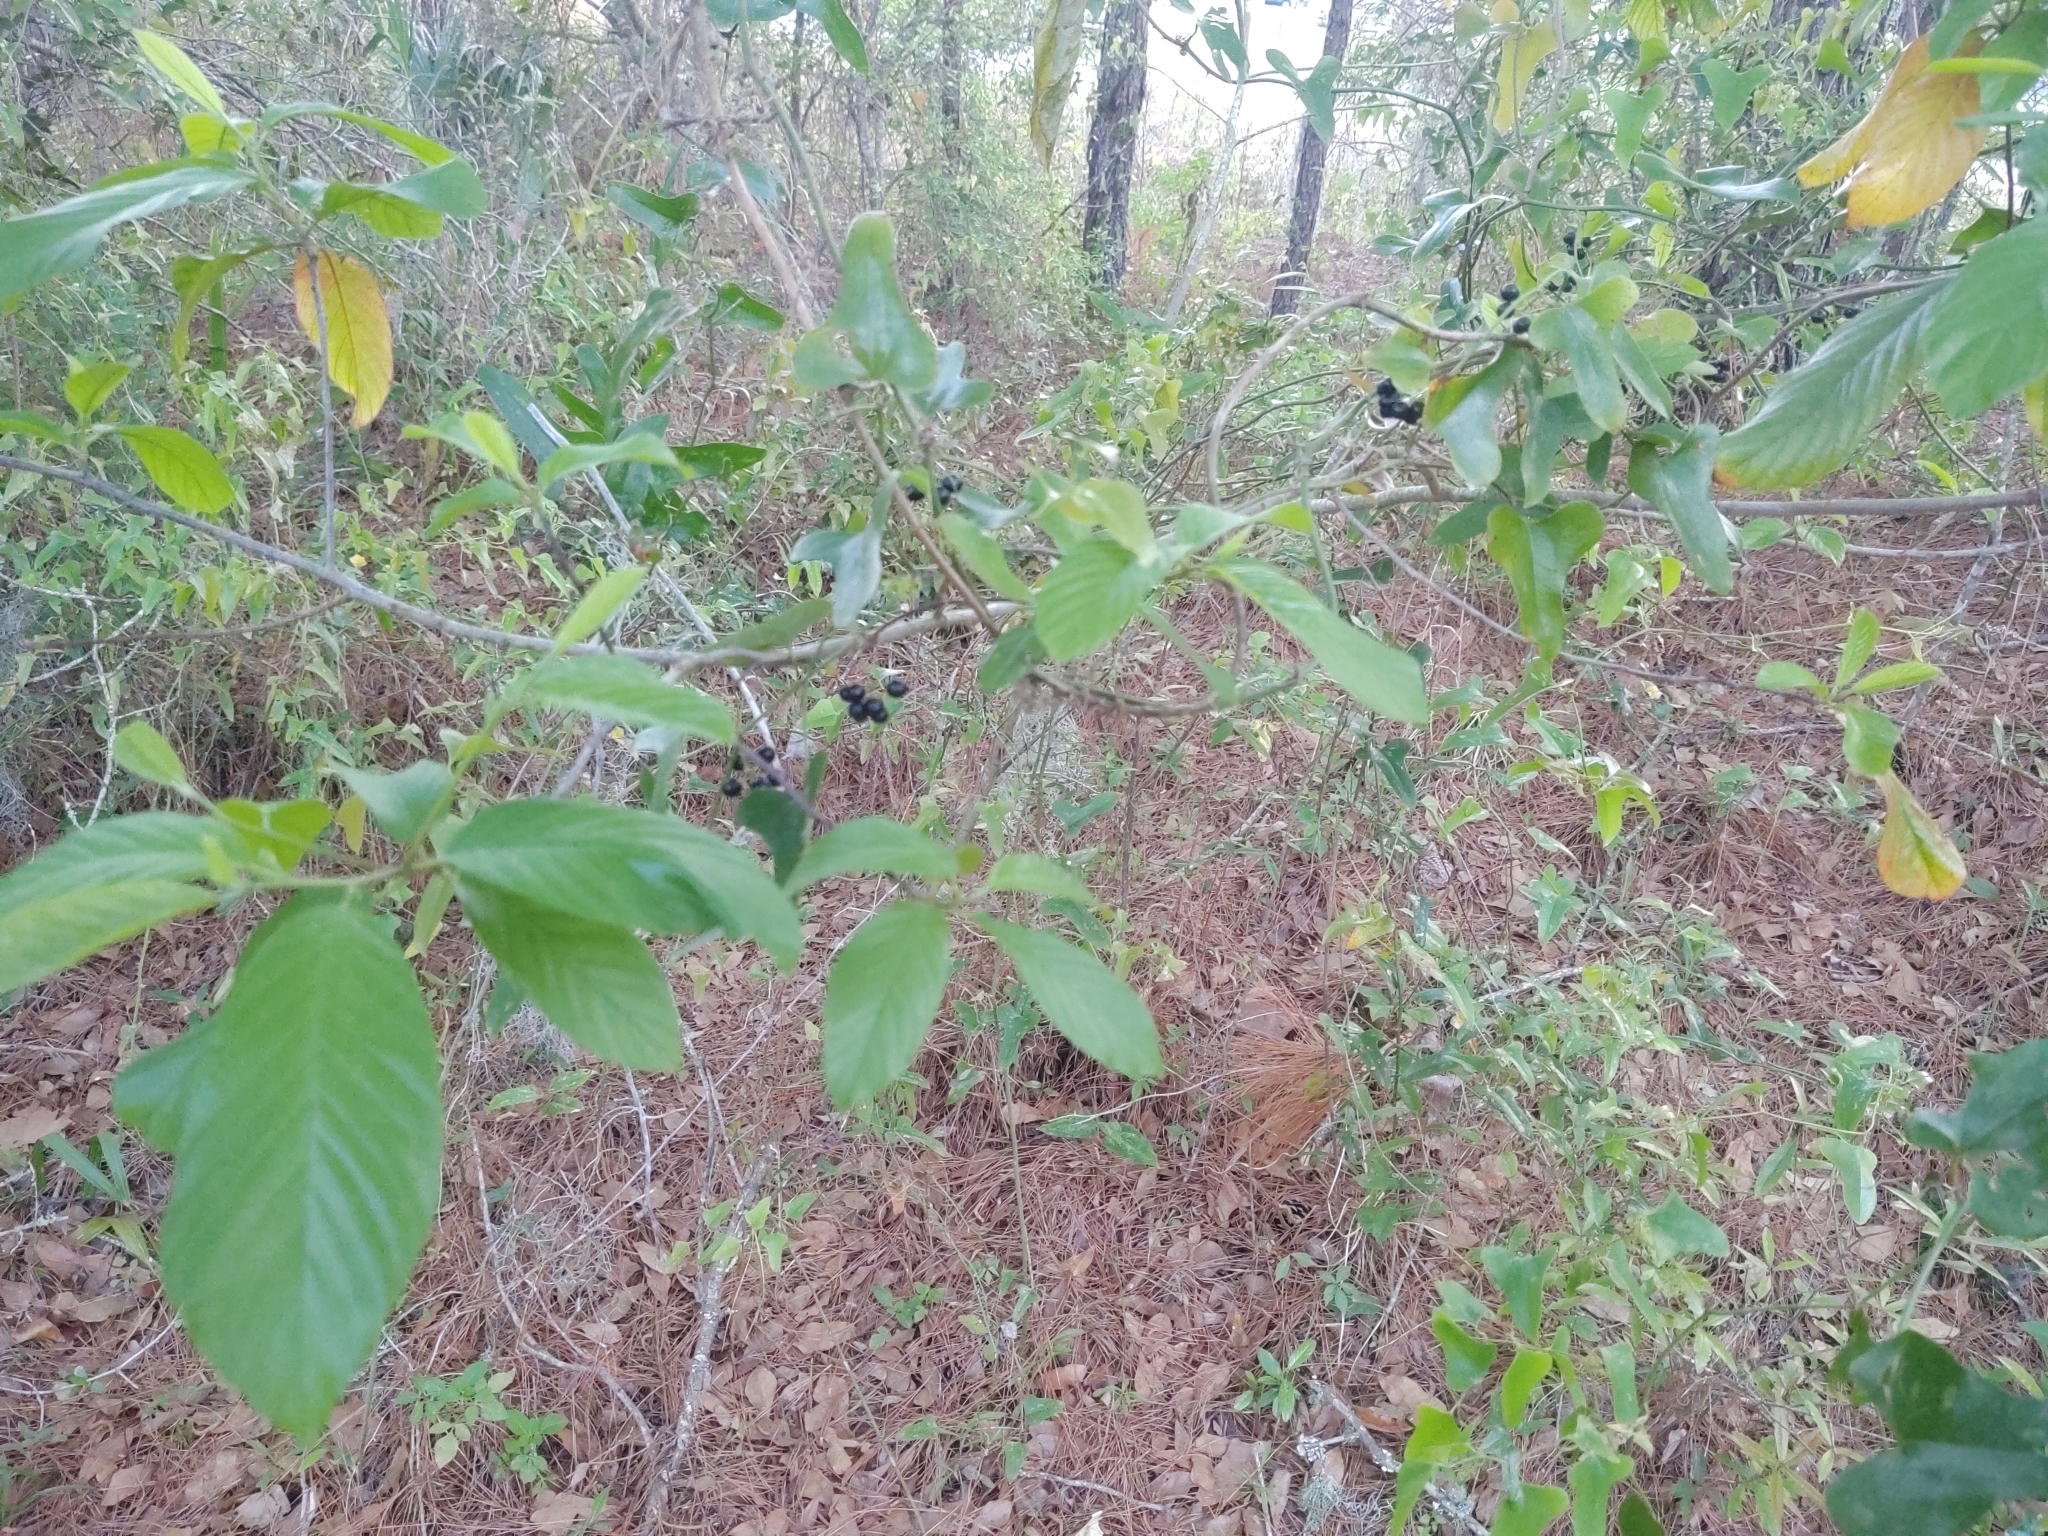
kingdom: Plantae
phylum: Tracheophyta
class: Liliopsida
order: Liliales
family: Smilacaceae
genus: Smilax
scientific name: Smilax bona-nox
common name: Catbrier
